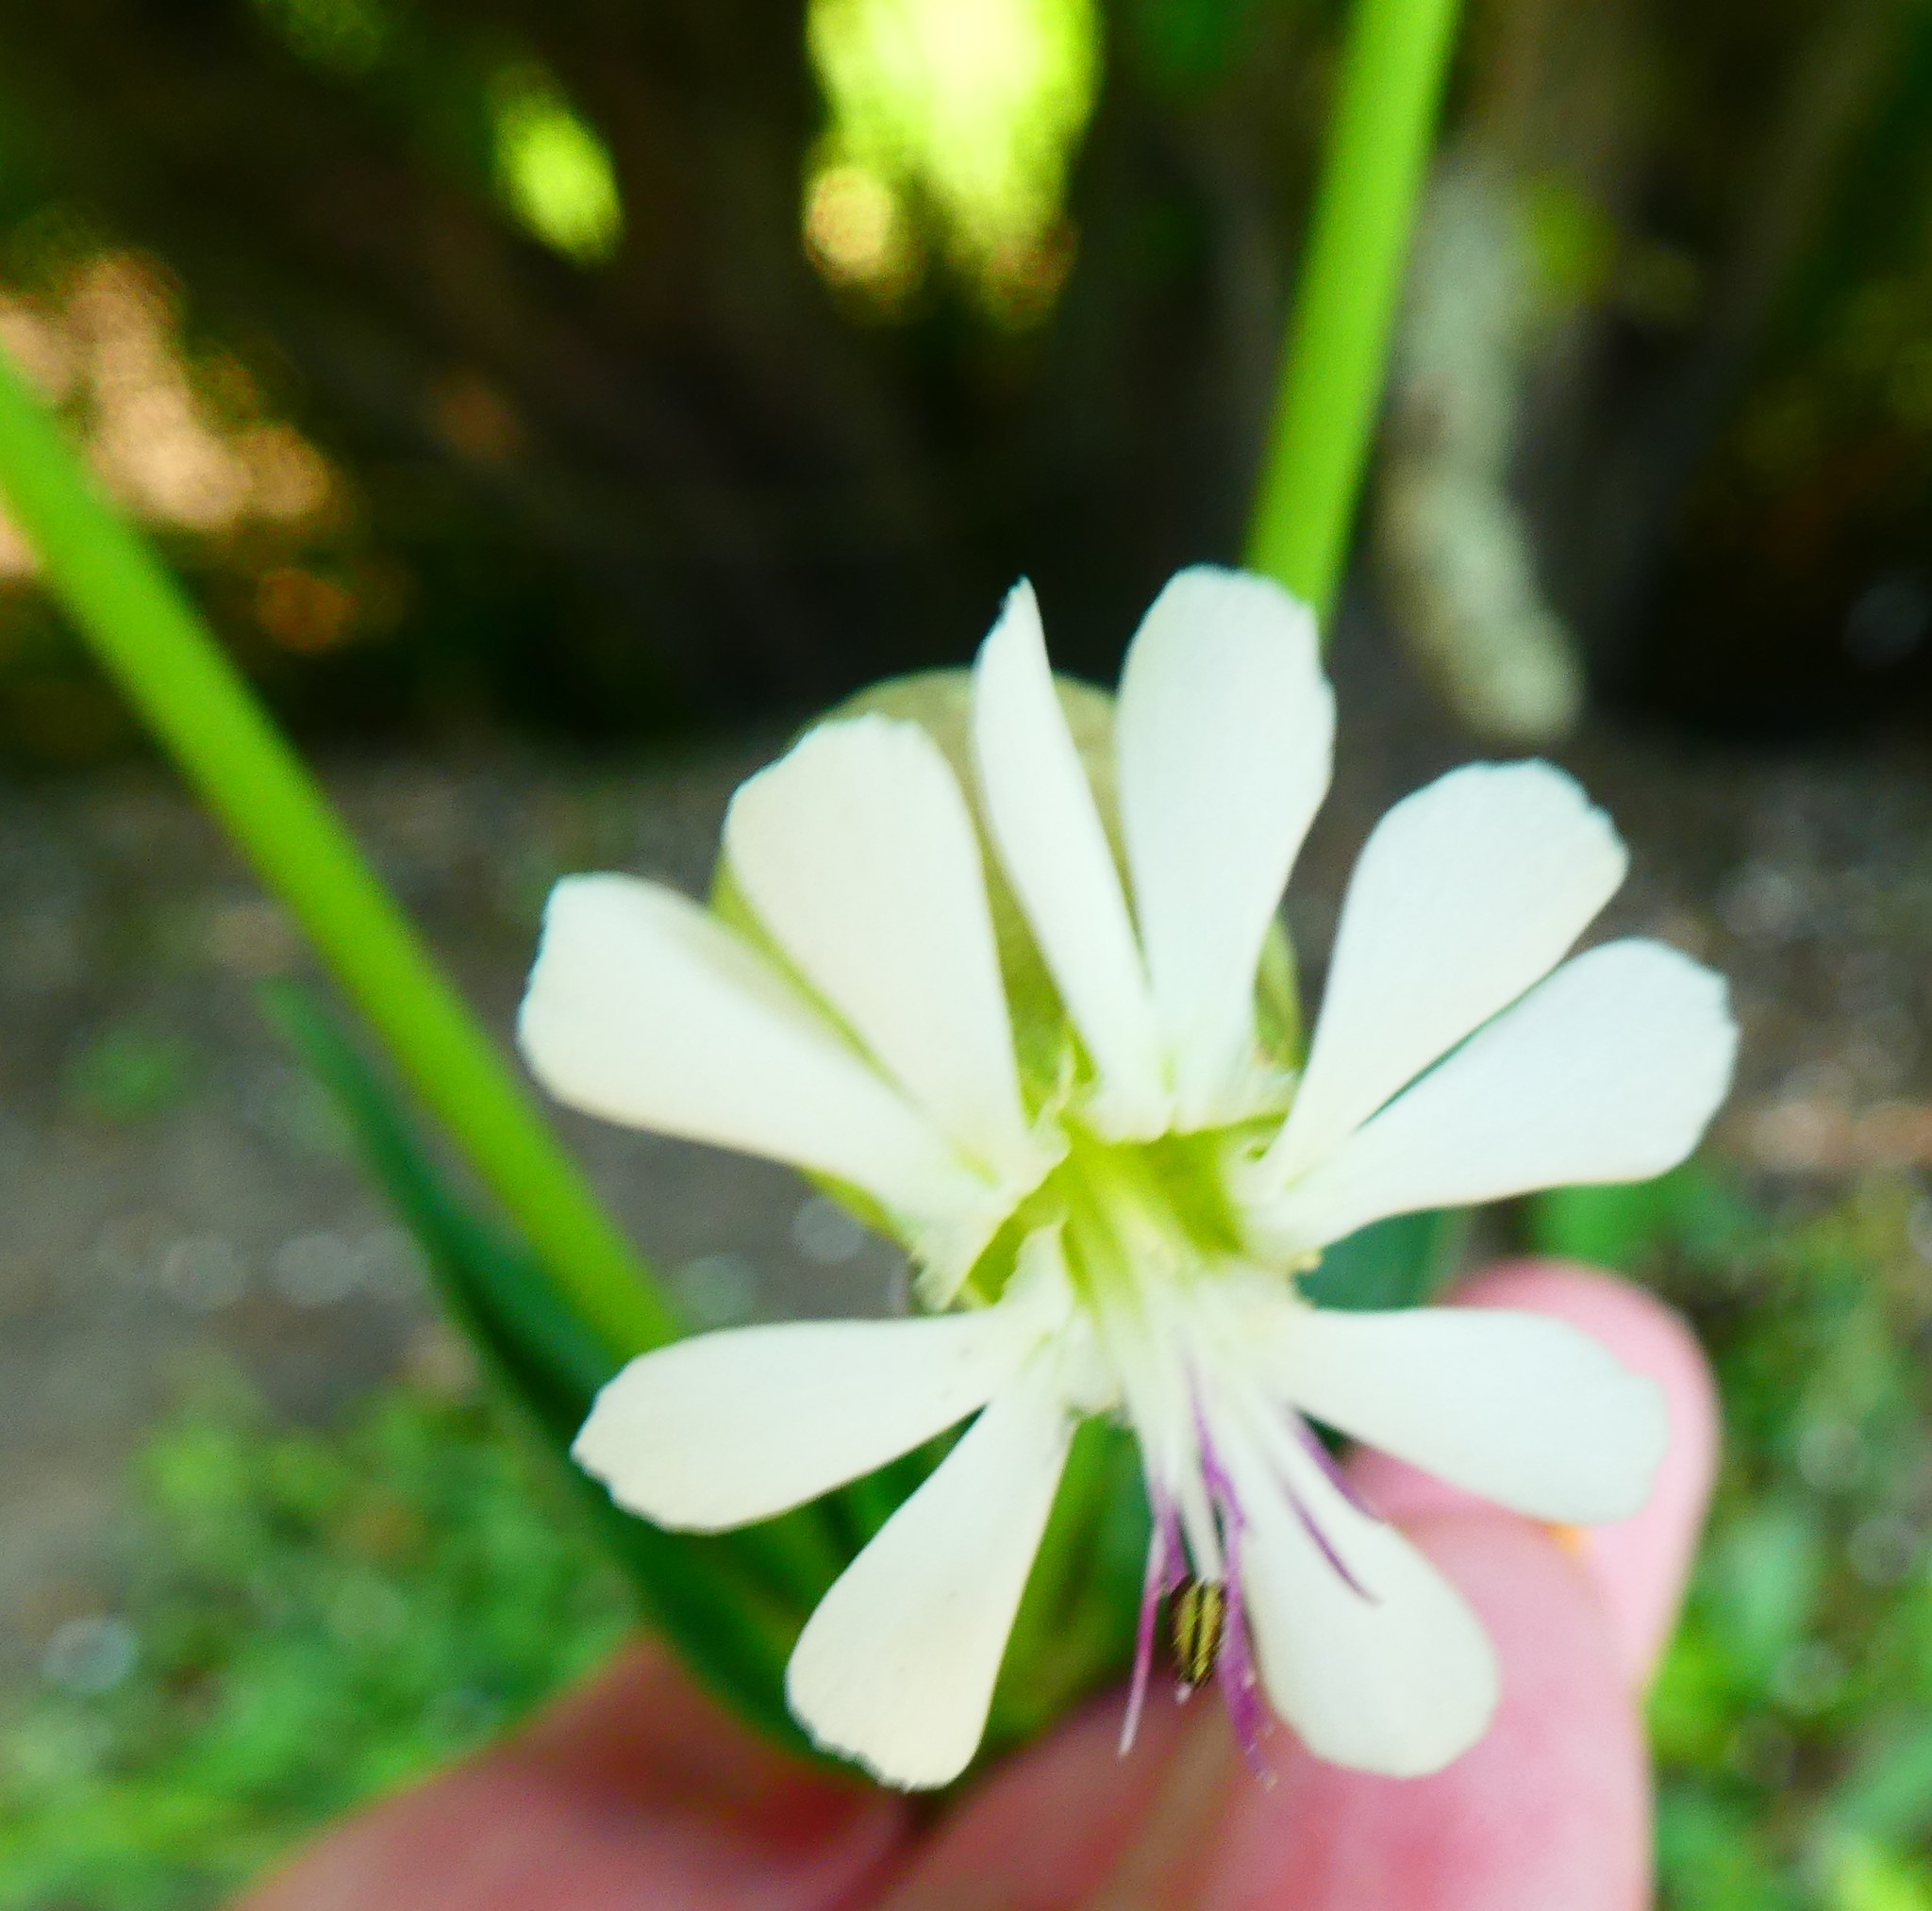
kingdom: Plantae
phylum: Tracheophyta
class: Magnoliopsida
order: Caryophyllales
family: Caryophyllaceae
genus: Silene
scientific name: Silene vulgaris
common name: Bladder campion
